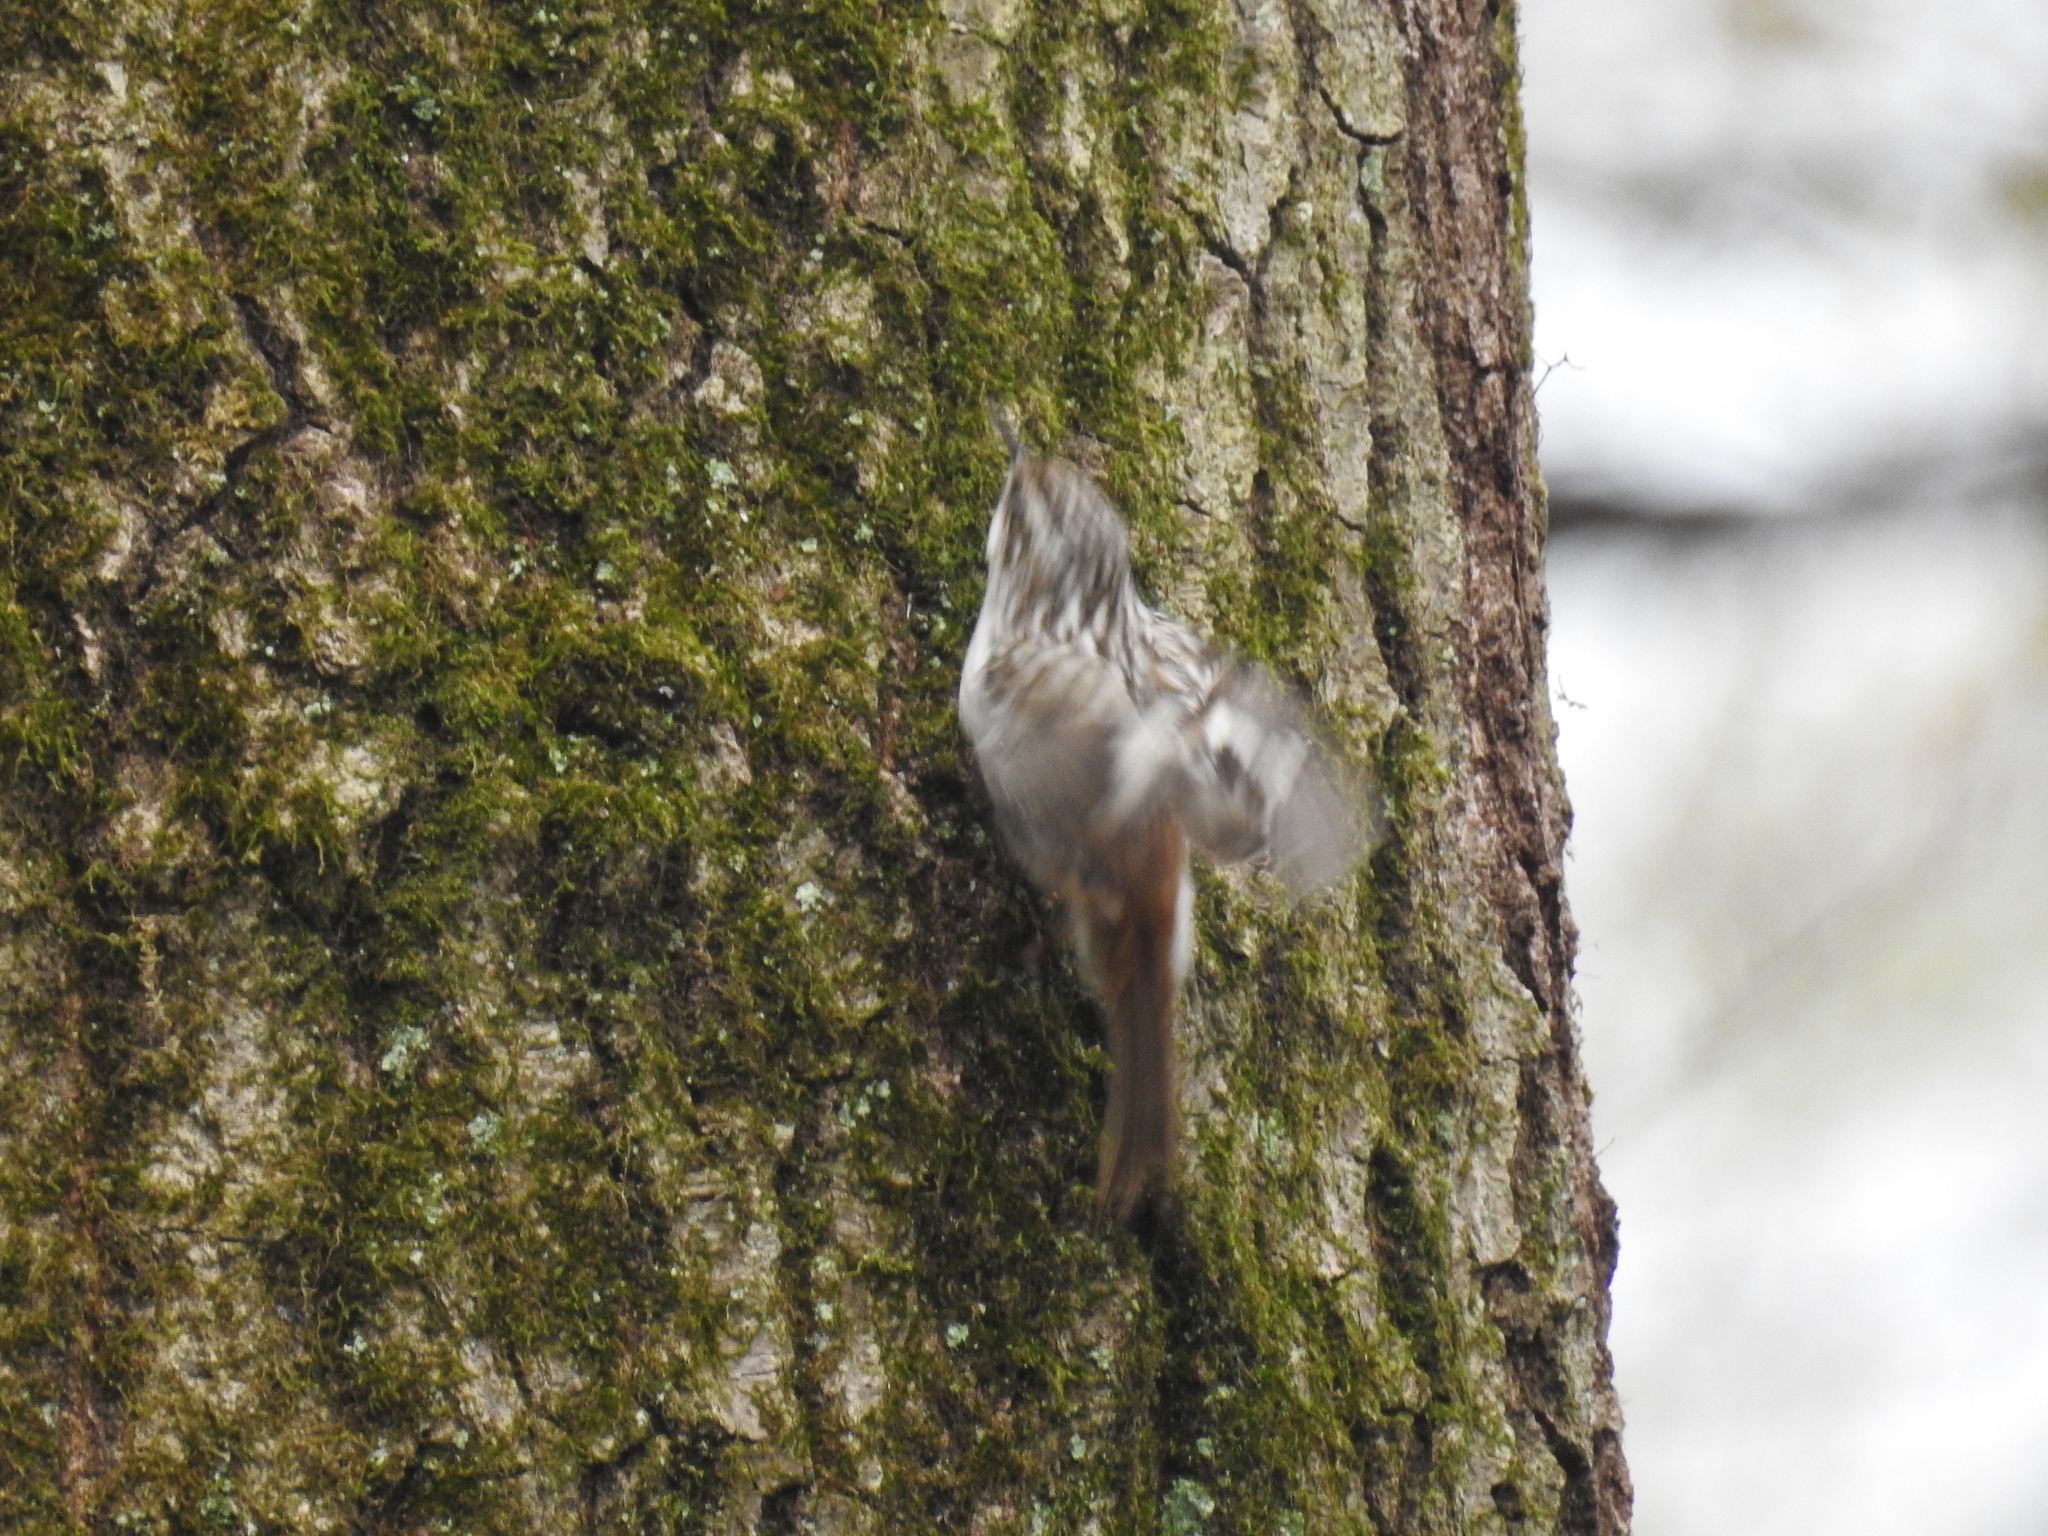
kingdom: Animalia
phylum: Chordata
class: Aves
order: Passeriformes
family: Certhiidae
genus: Certhia
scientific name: Certhia americana
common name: Brown creeper
